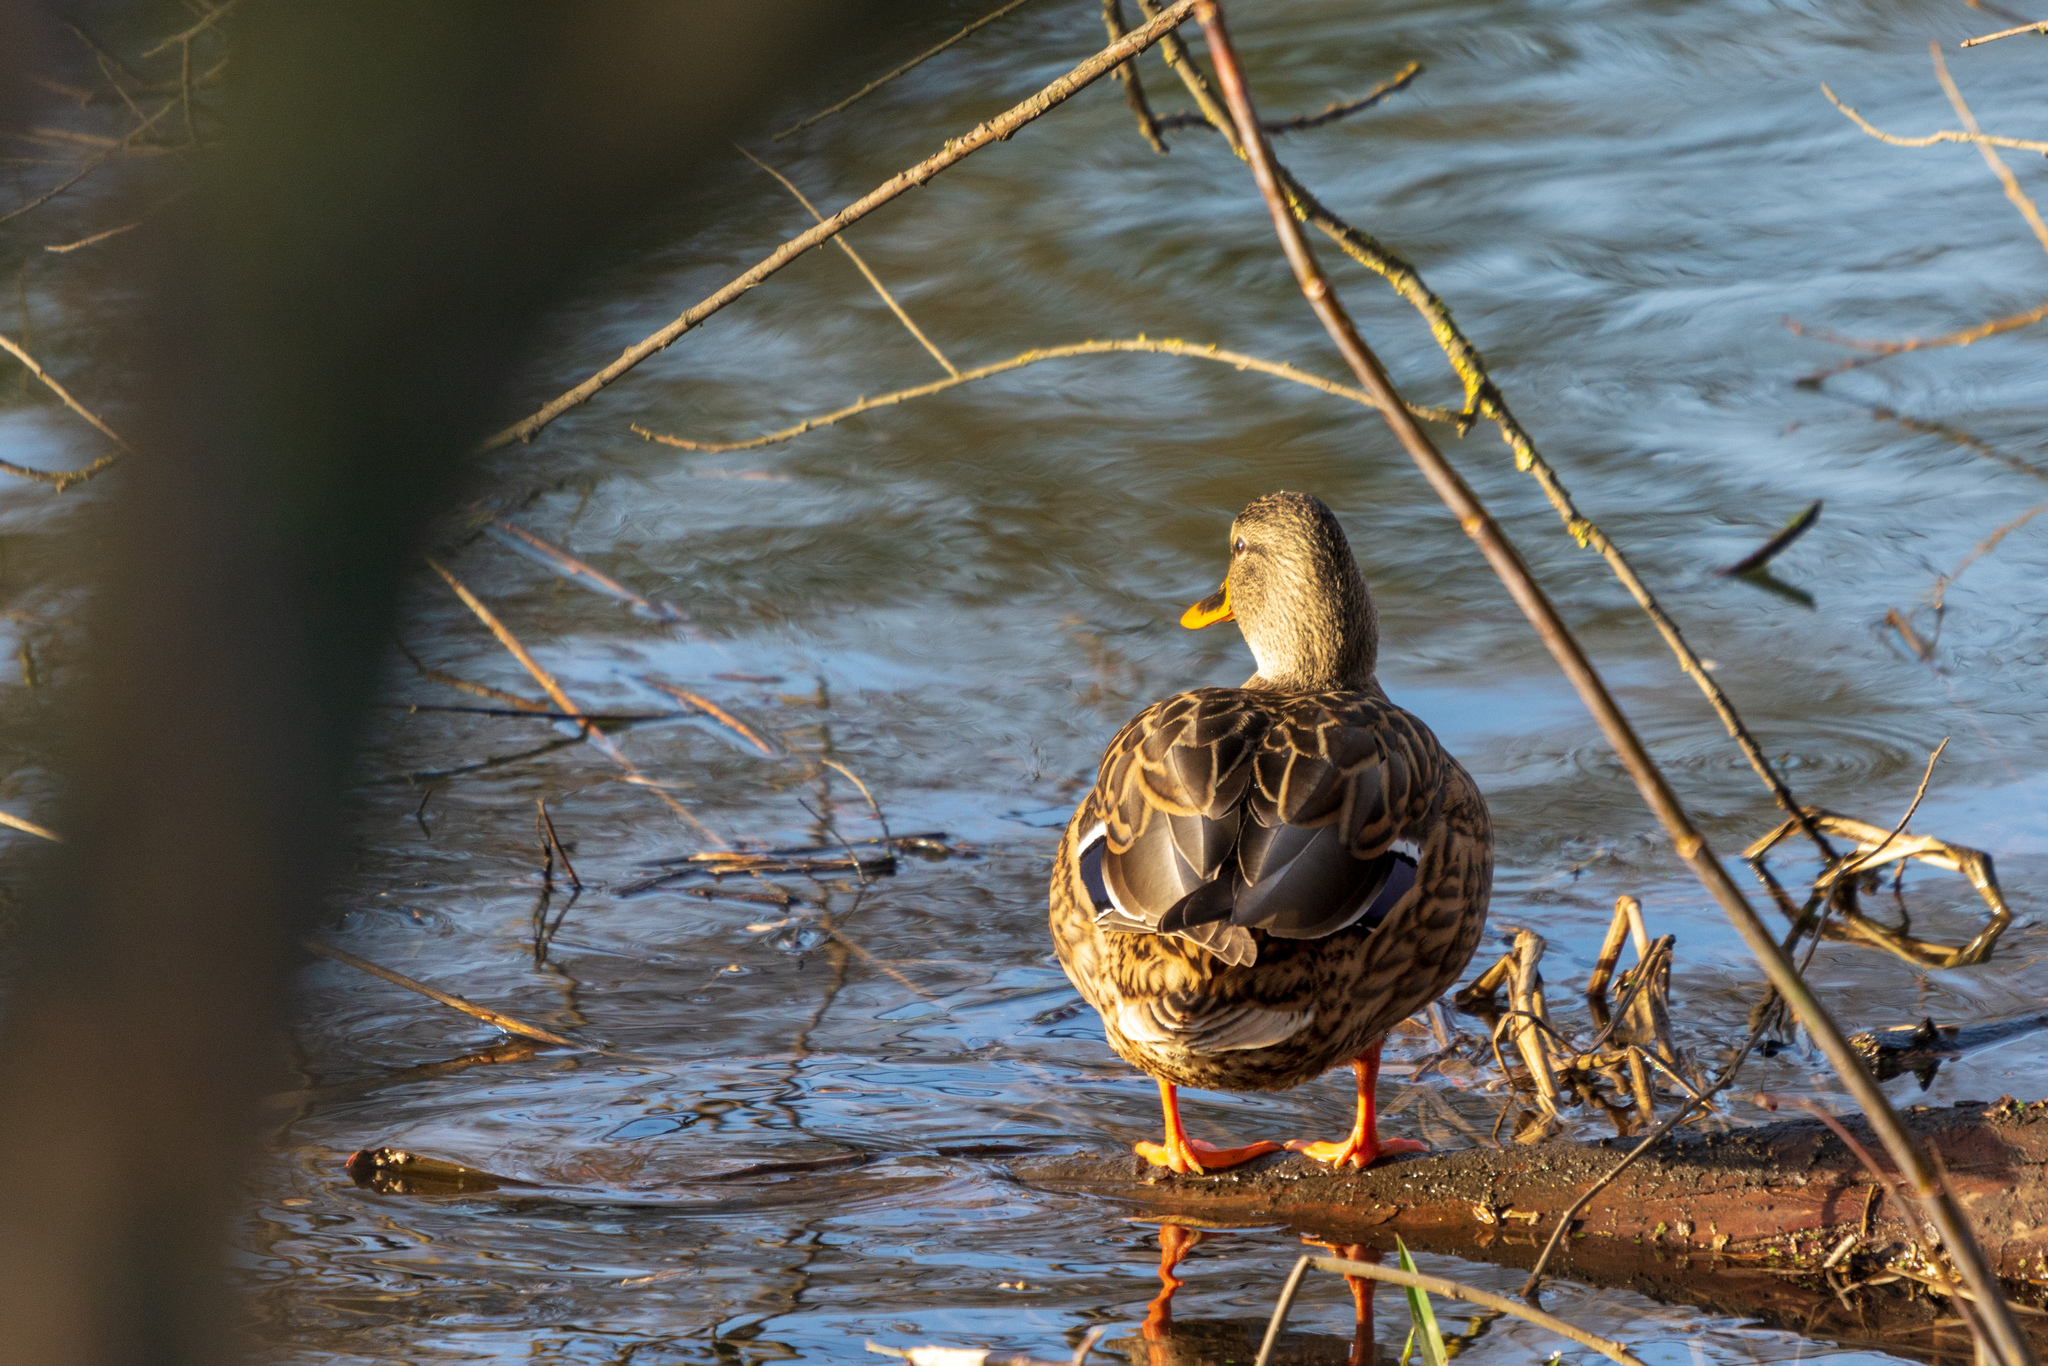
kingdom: Animalia
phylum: Chordata
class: Aves
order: Anseriformes
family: Anatidae
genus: Anas
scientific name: Anas platyrhynchos
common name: Mallard
